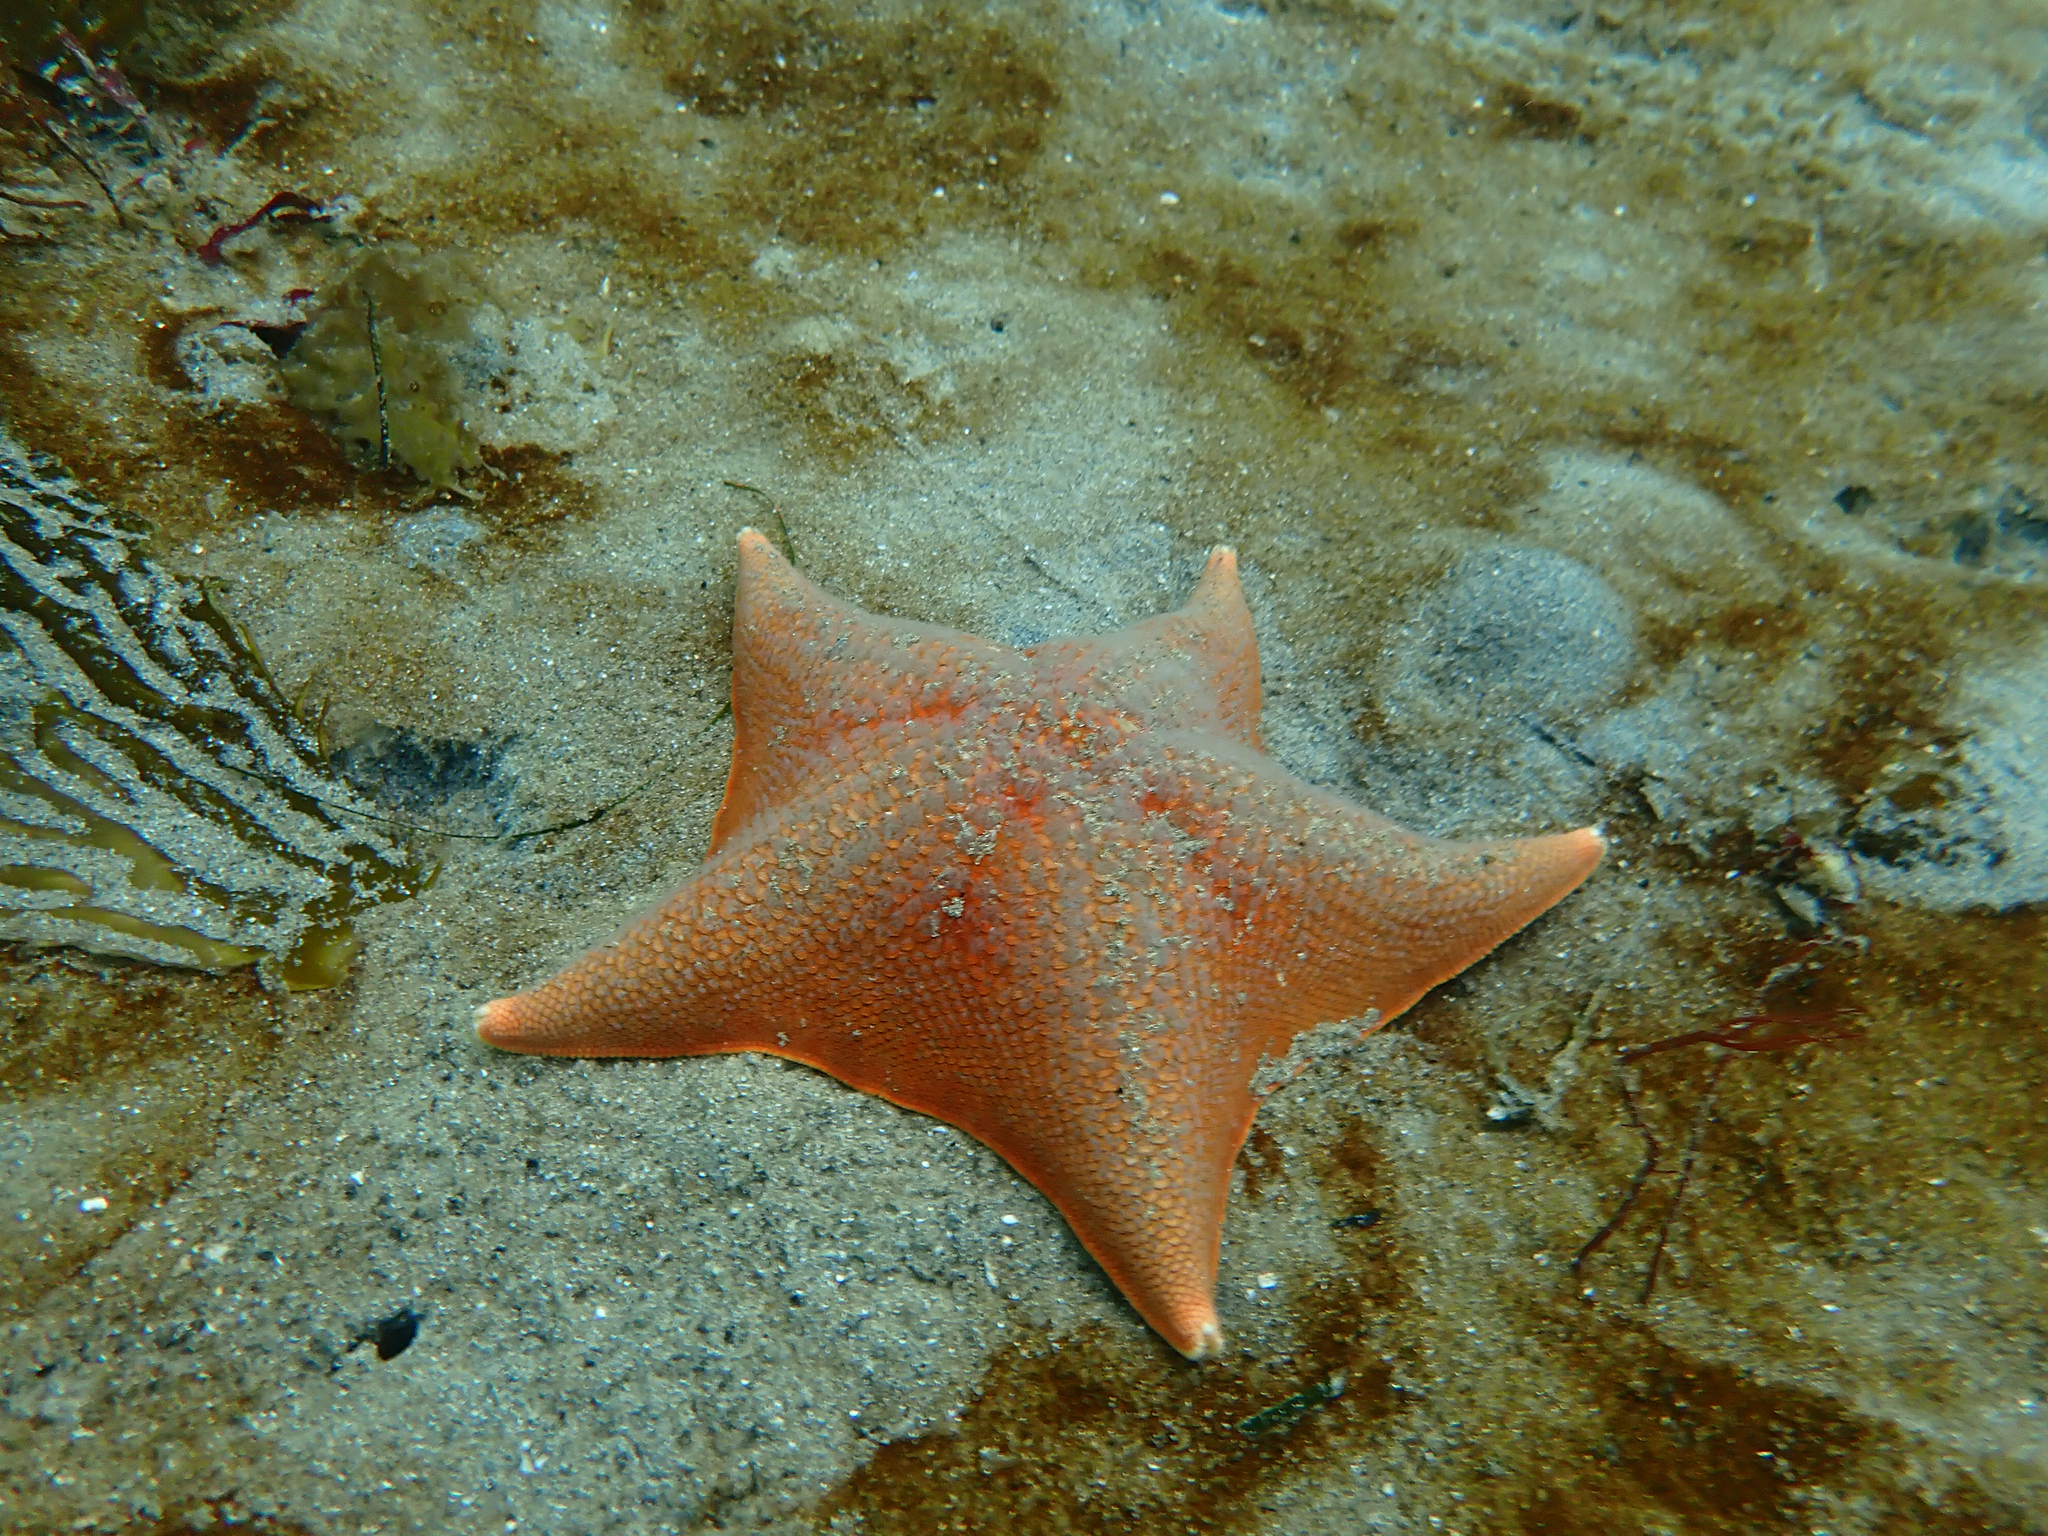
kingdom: Animalia
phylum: Echinodermata
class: Asteroidea
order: Valvatida
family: Asterinidae
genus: Patiria
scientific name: Patiria miniata
